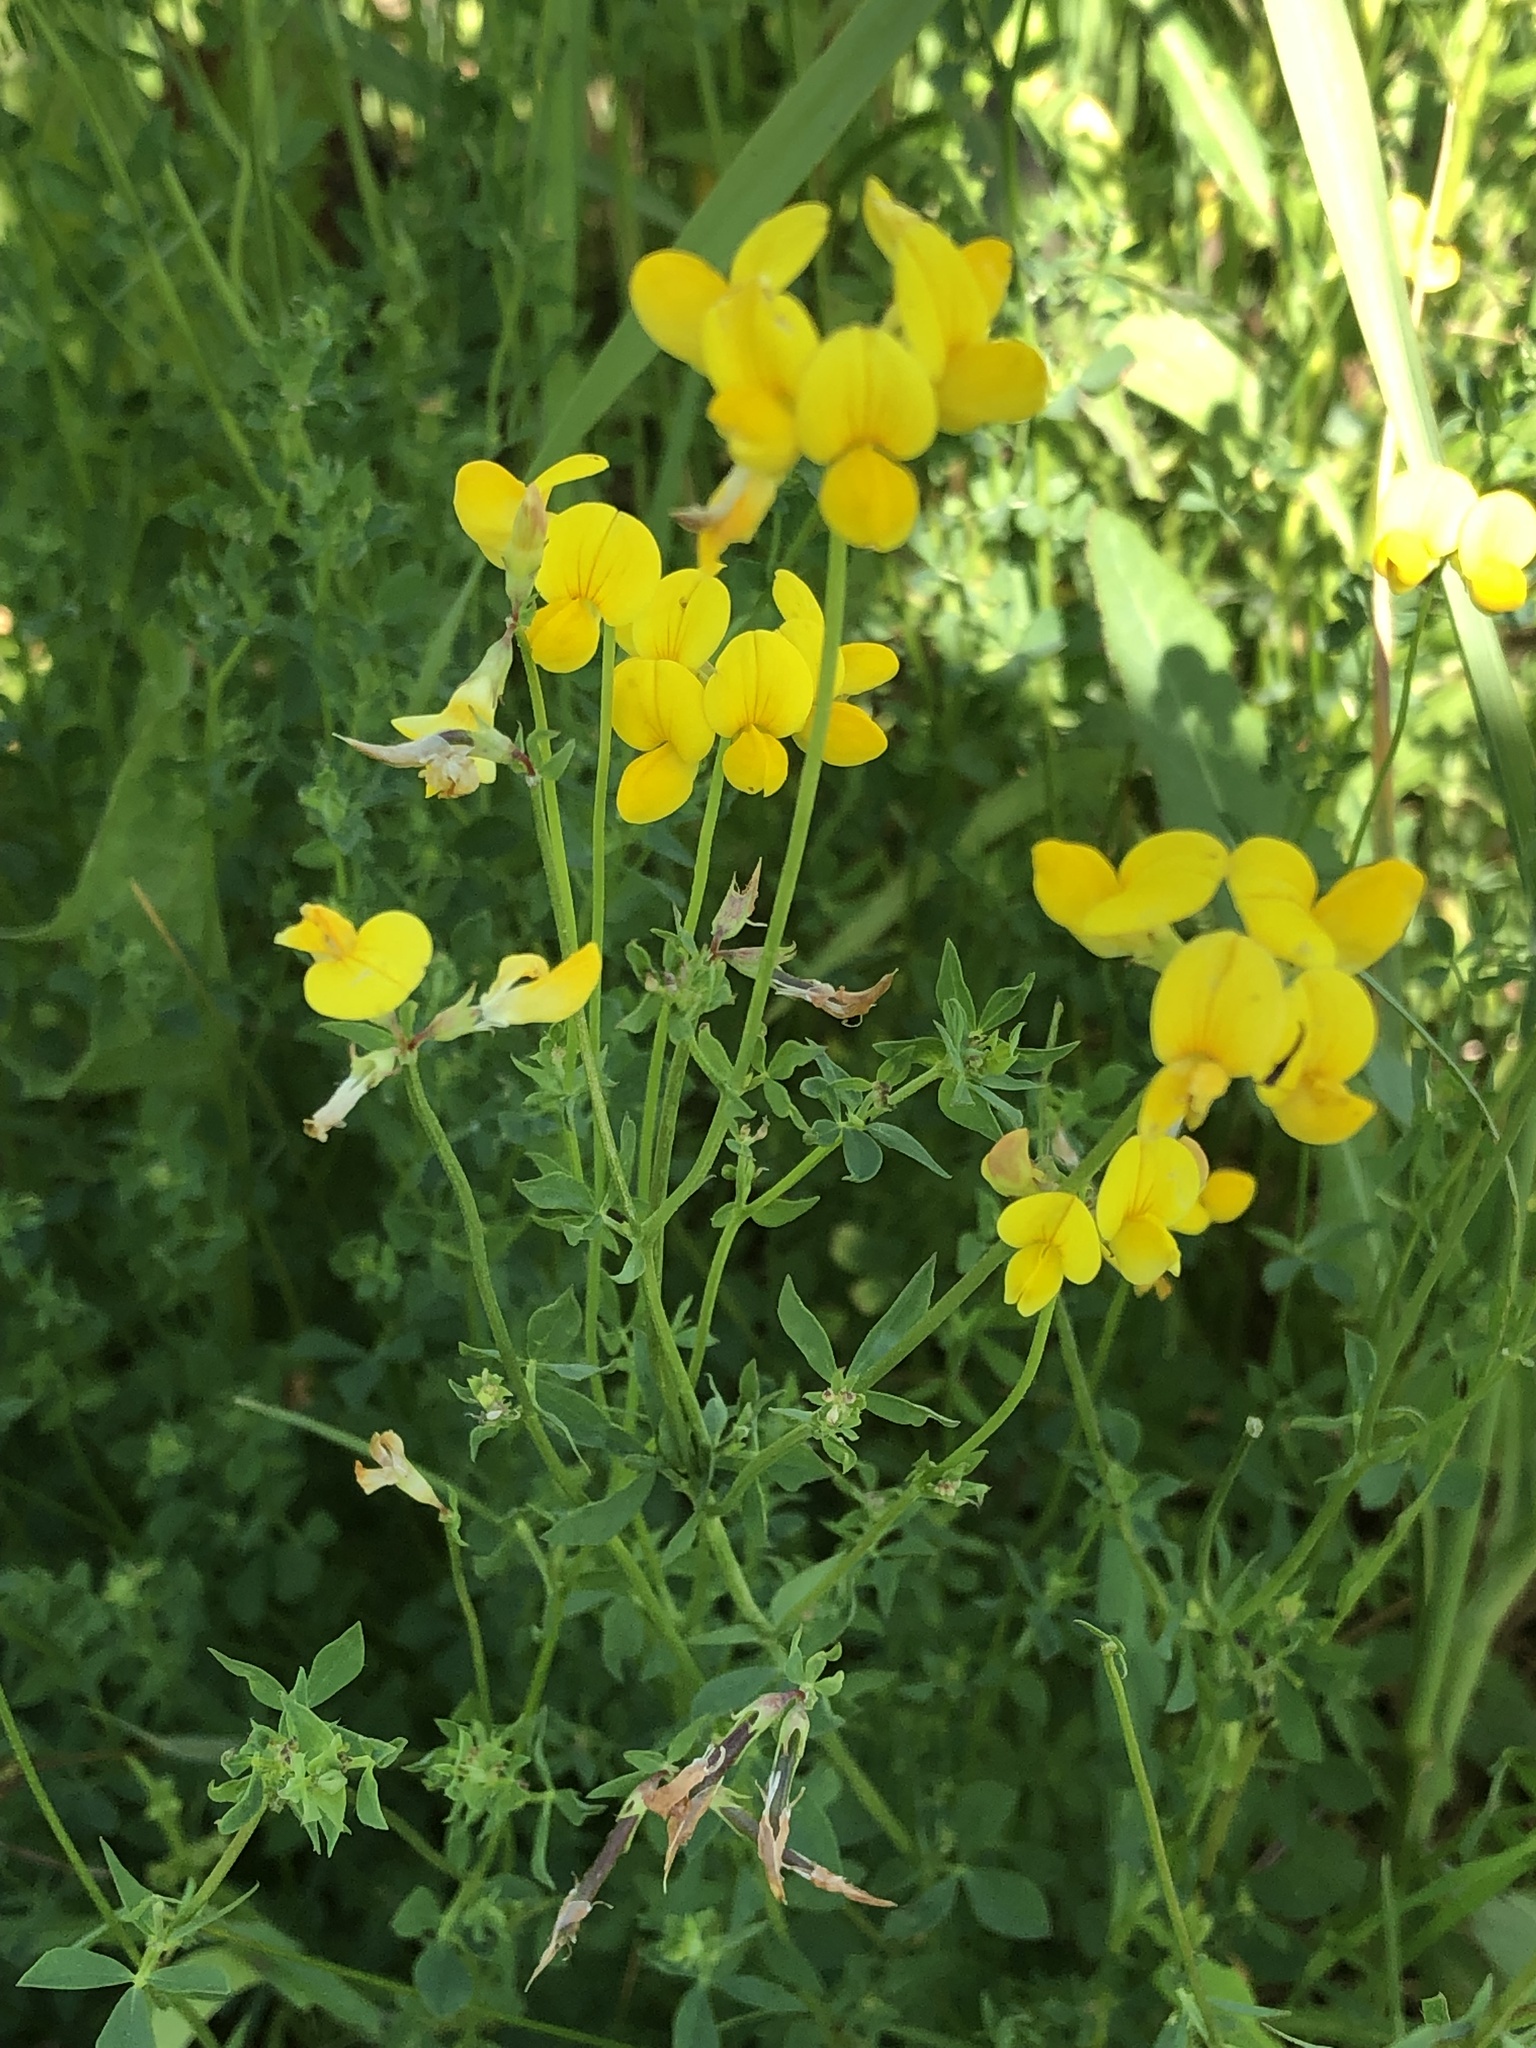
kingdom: Plantae
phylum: Tracheophyta
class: Magnoliopsida
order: Fabales
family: Fabaceae
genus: Lotus
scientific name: Lotus corniculatus
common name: Common bird's-foot-trefoil
